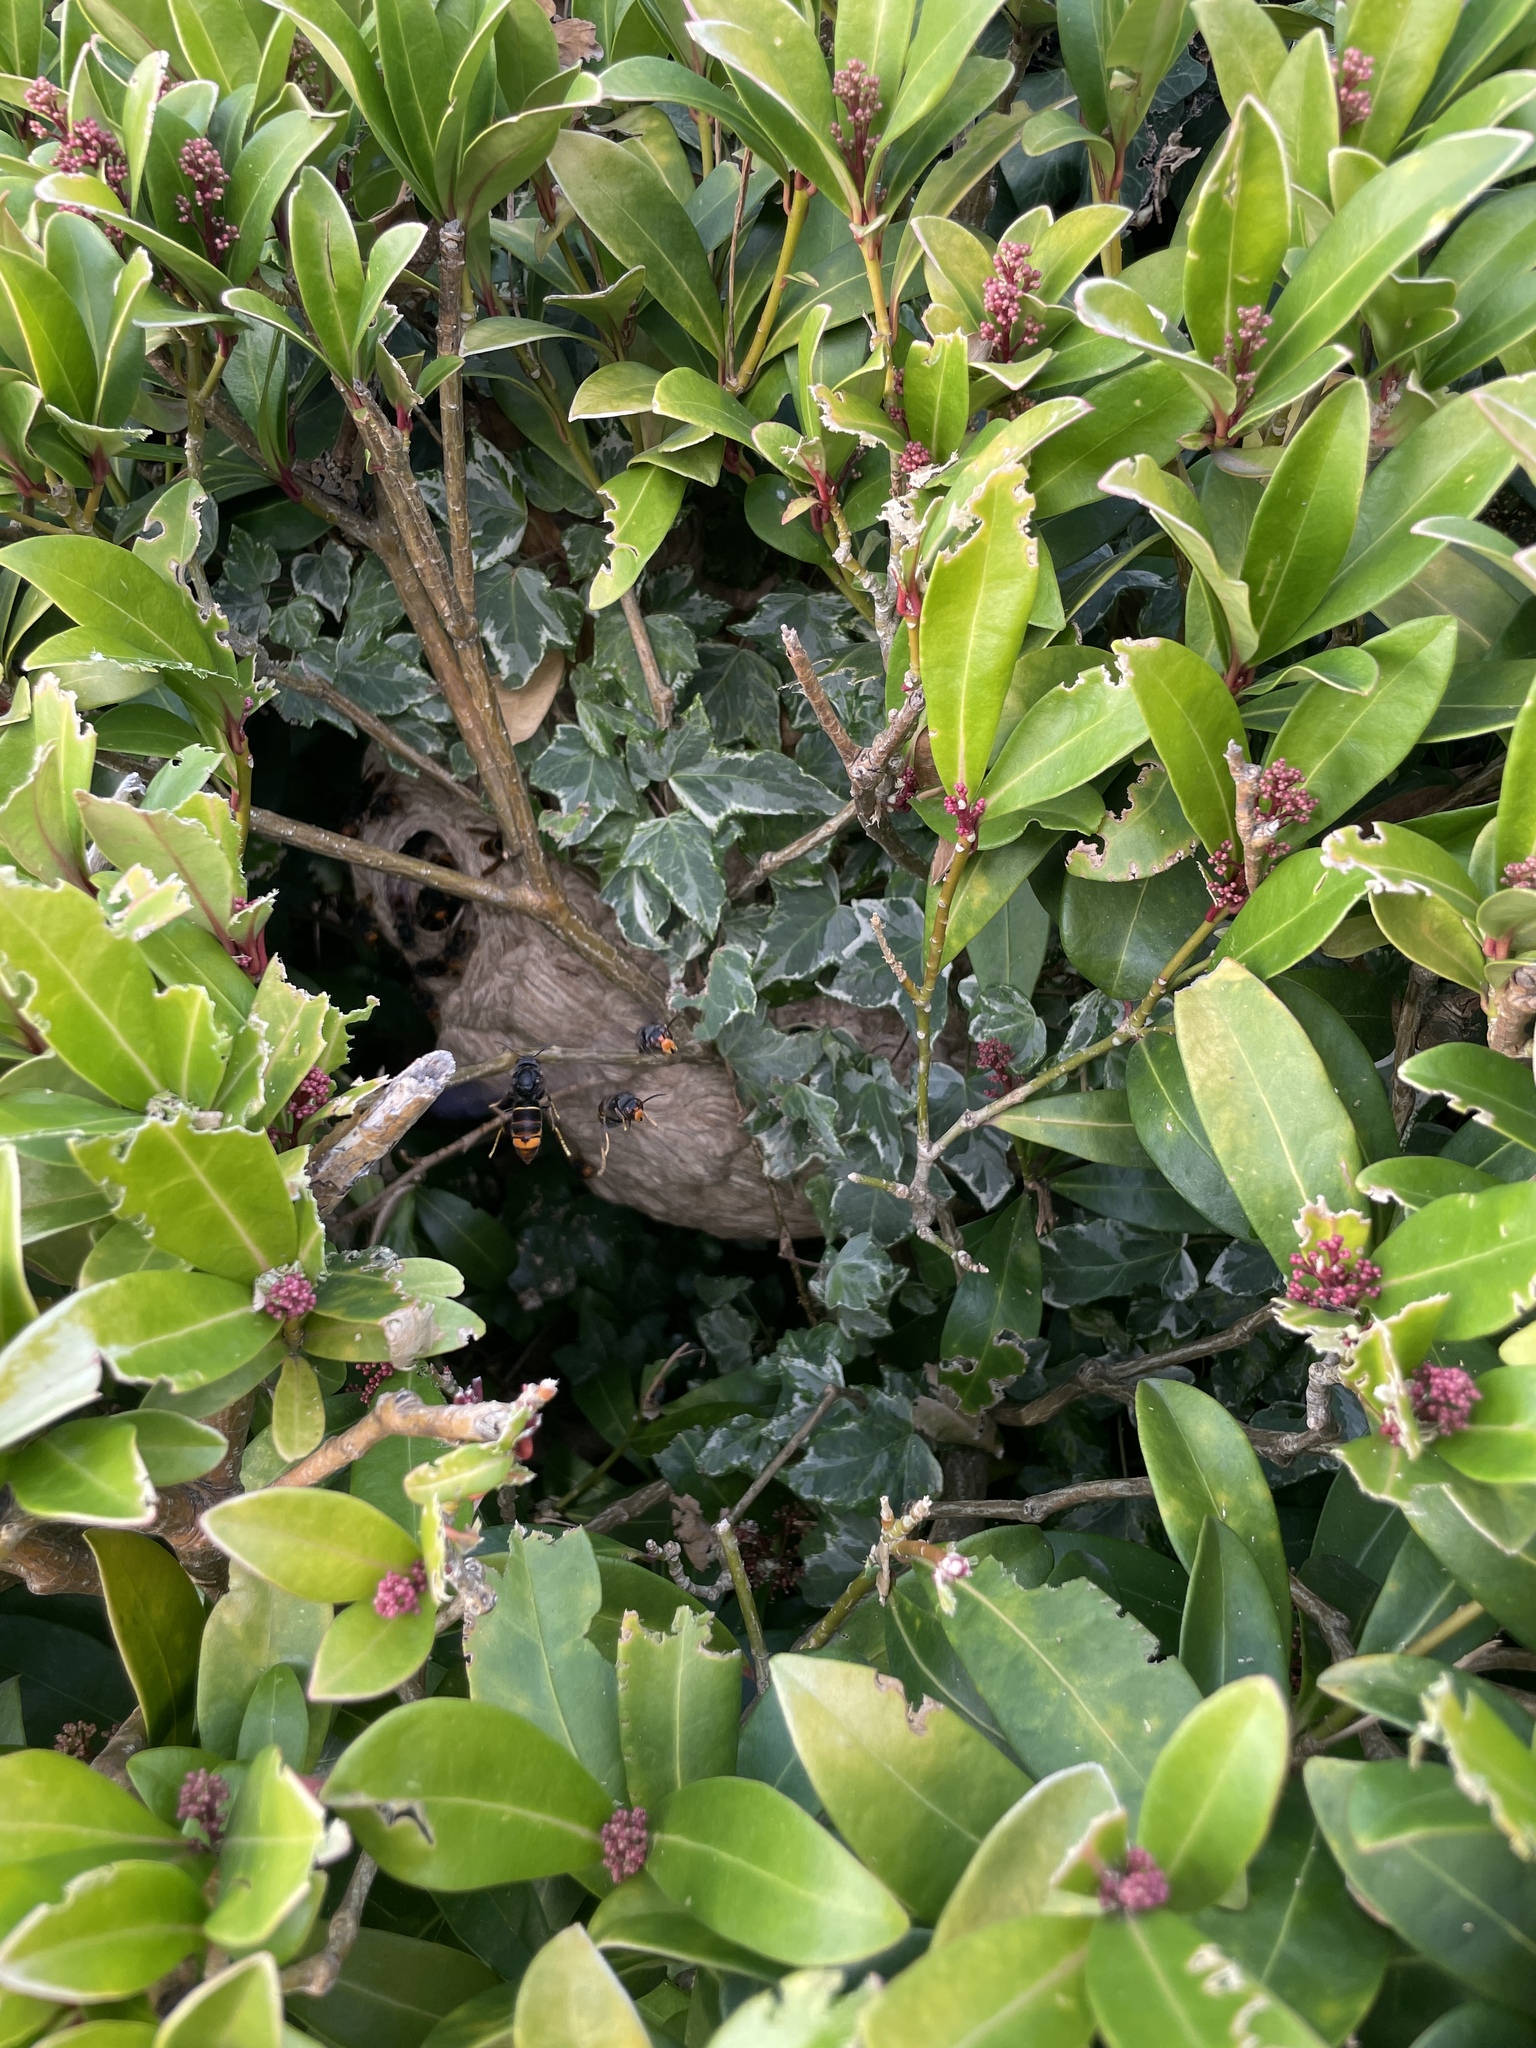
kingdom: Animalia
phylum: Arthropoda
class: Insecta
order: Hymenoptera
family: Vespidae
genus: Vespa
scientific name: Vespa velutina
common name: Asian hornet
